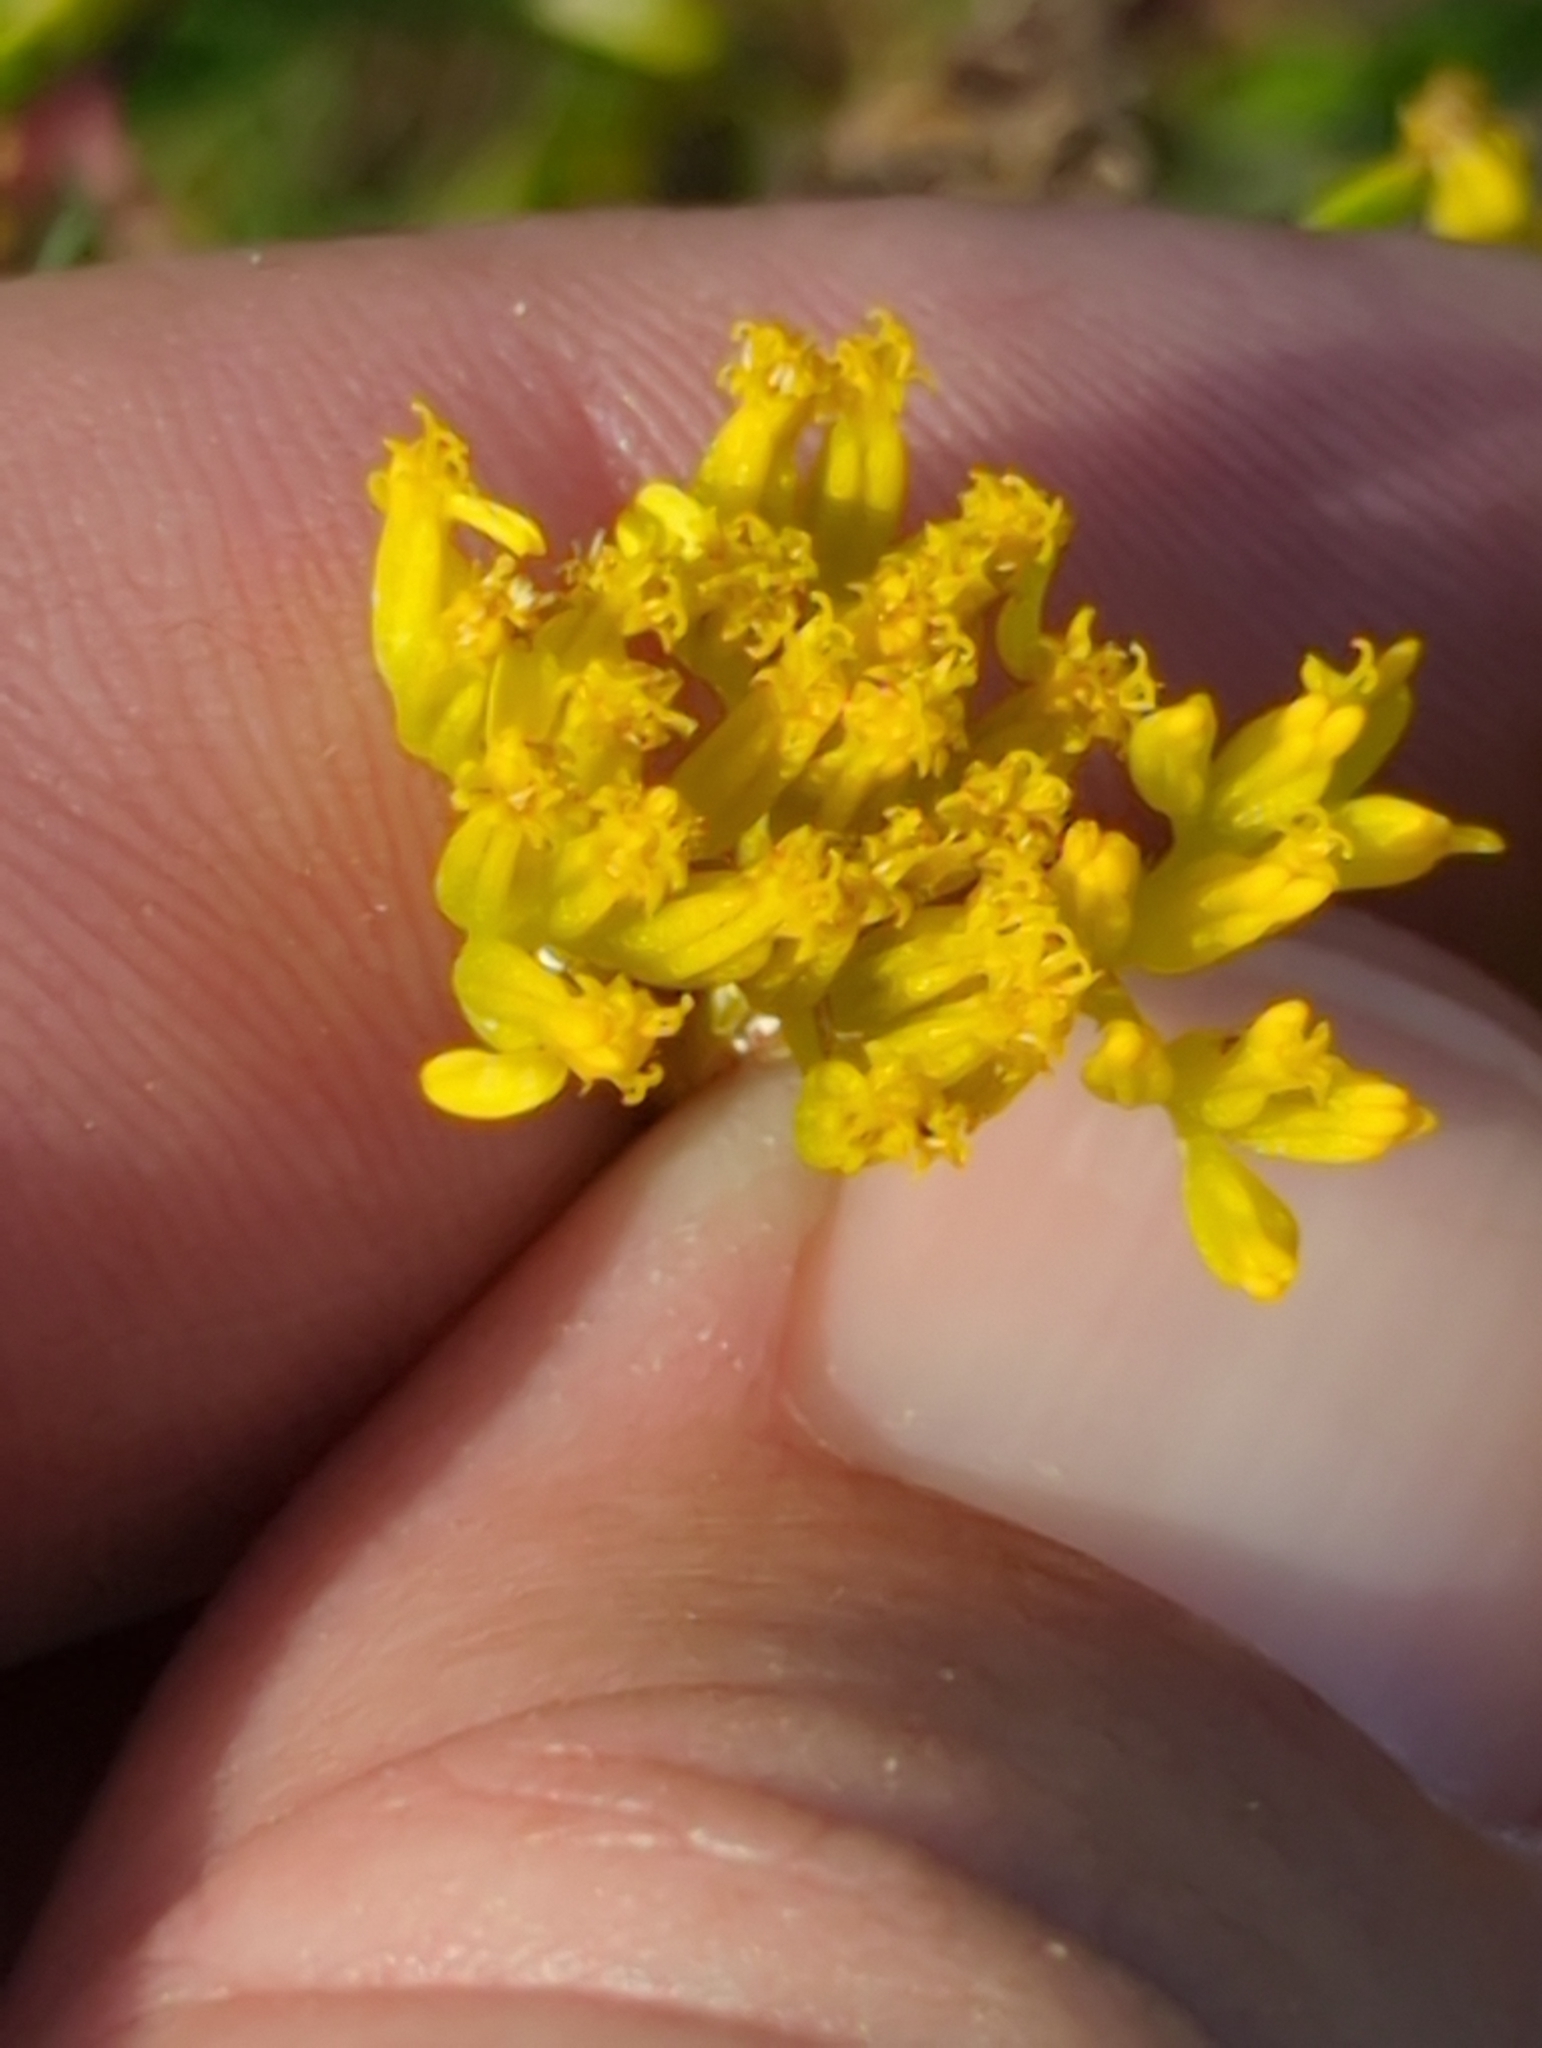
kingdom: Plantae
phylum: Tracheophyta
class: Magnoliopsida
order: Asterales
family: Asteraceae
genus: Flaveria
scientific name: Flaveria linearis
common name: Yellowtop
